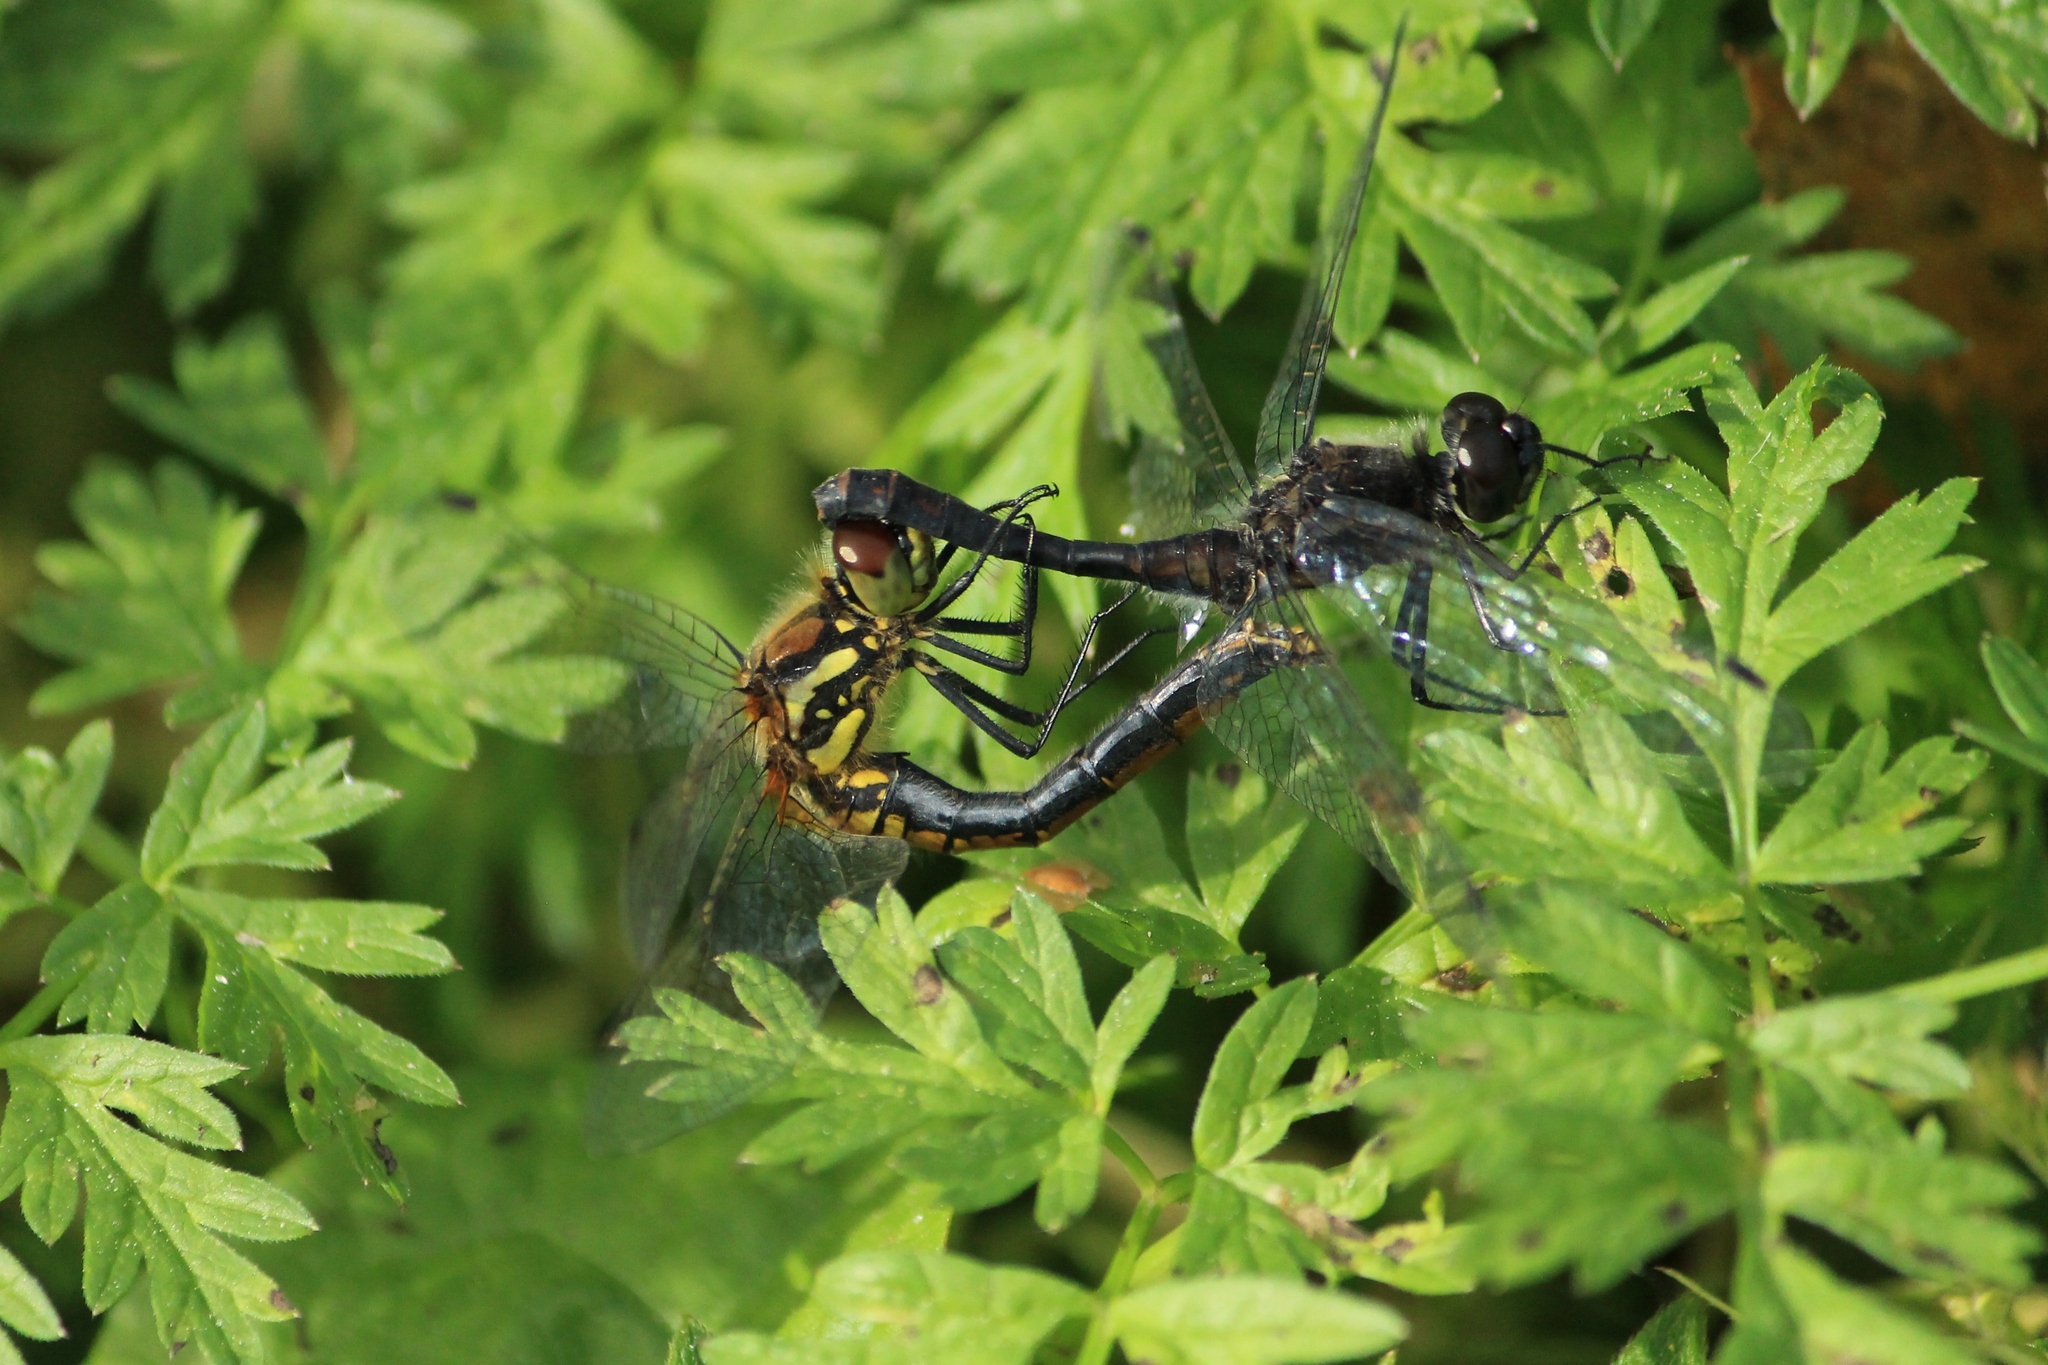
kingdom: Animalia
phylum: Arthropoda
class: Insecta
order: Odonata
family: Libellulidae
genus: Sympetrum
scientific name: Sympetrum danae
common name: Black darter
